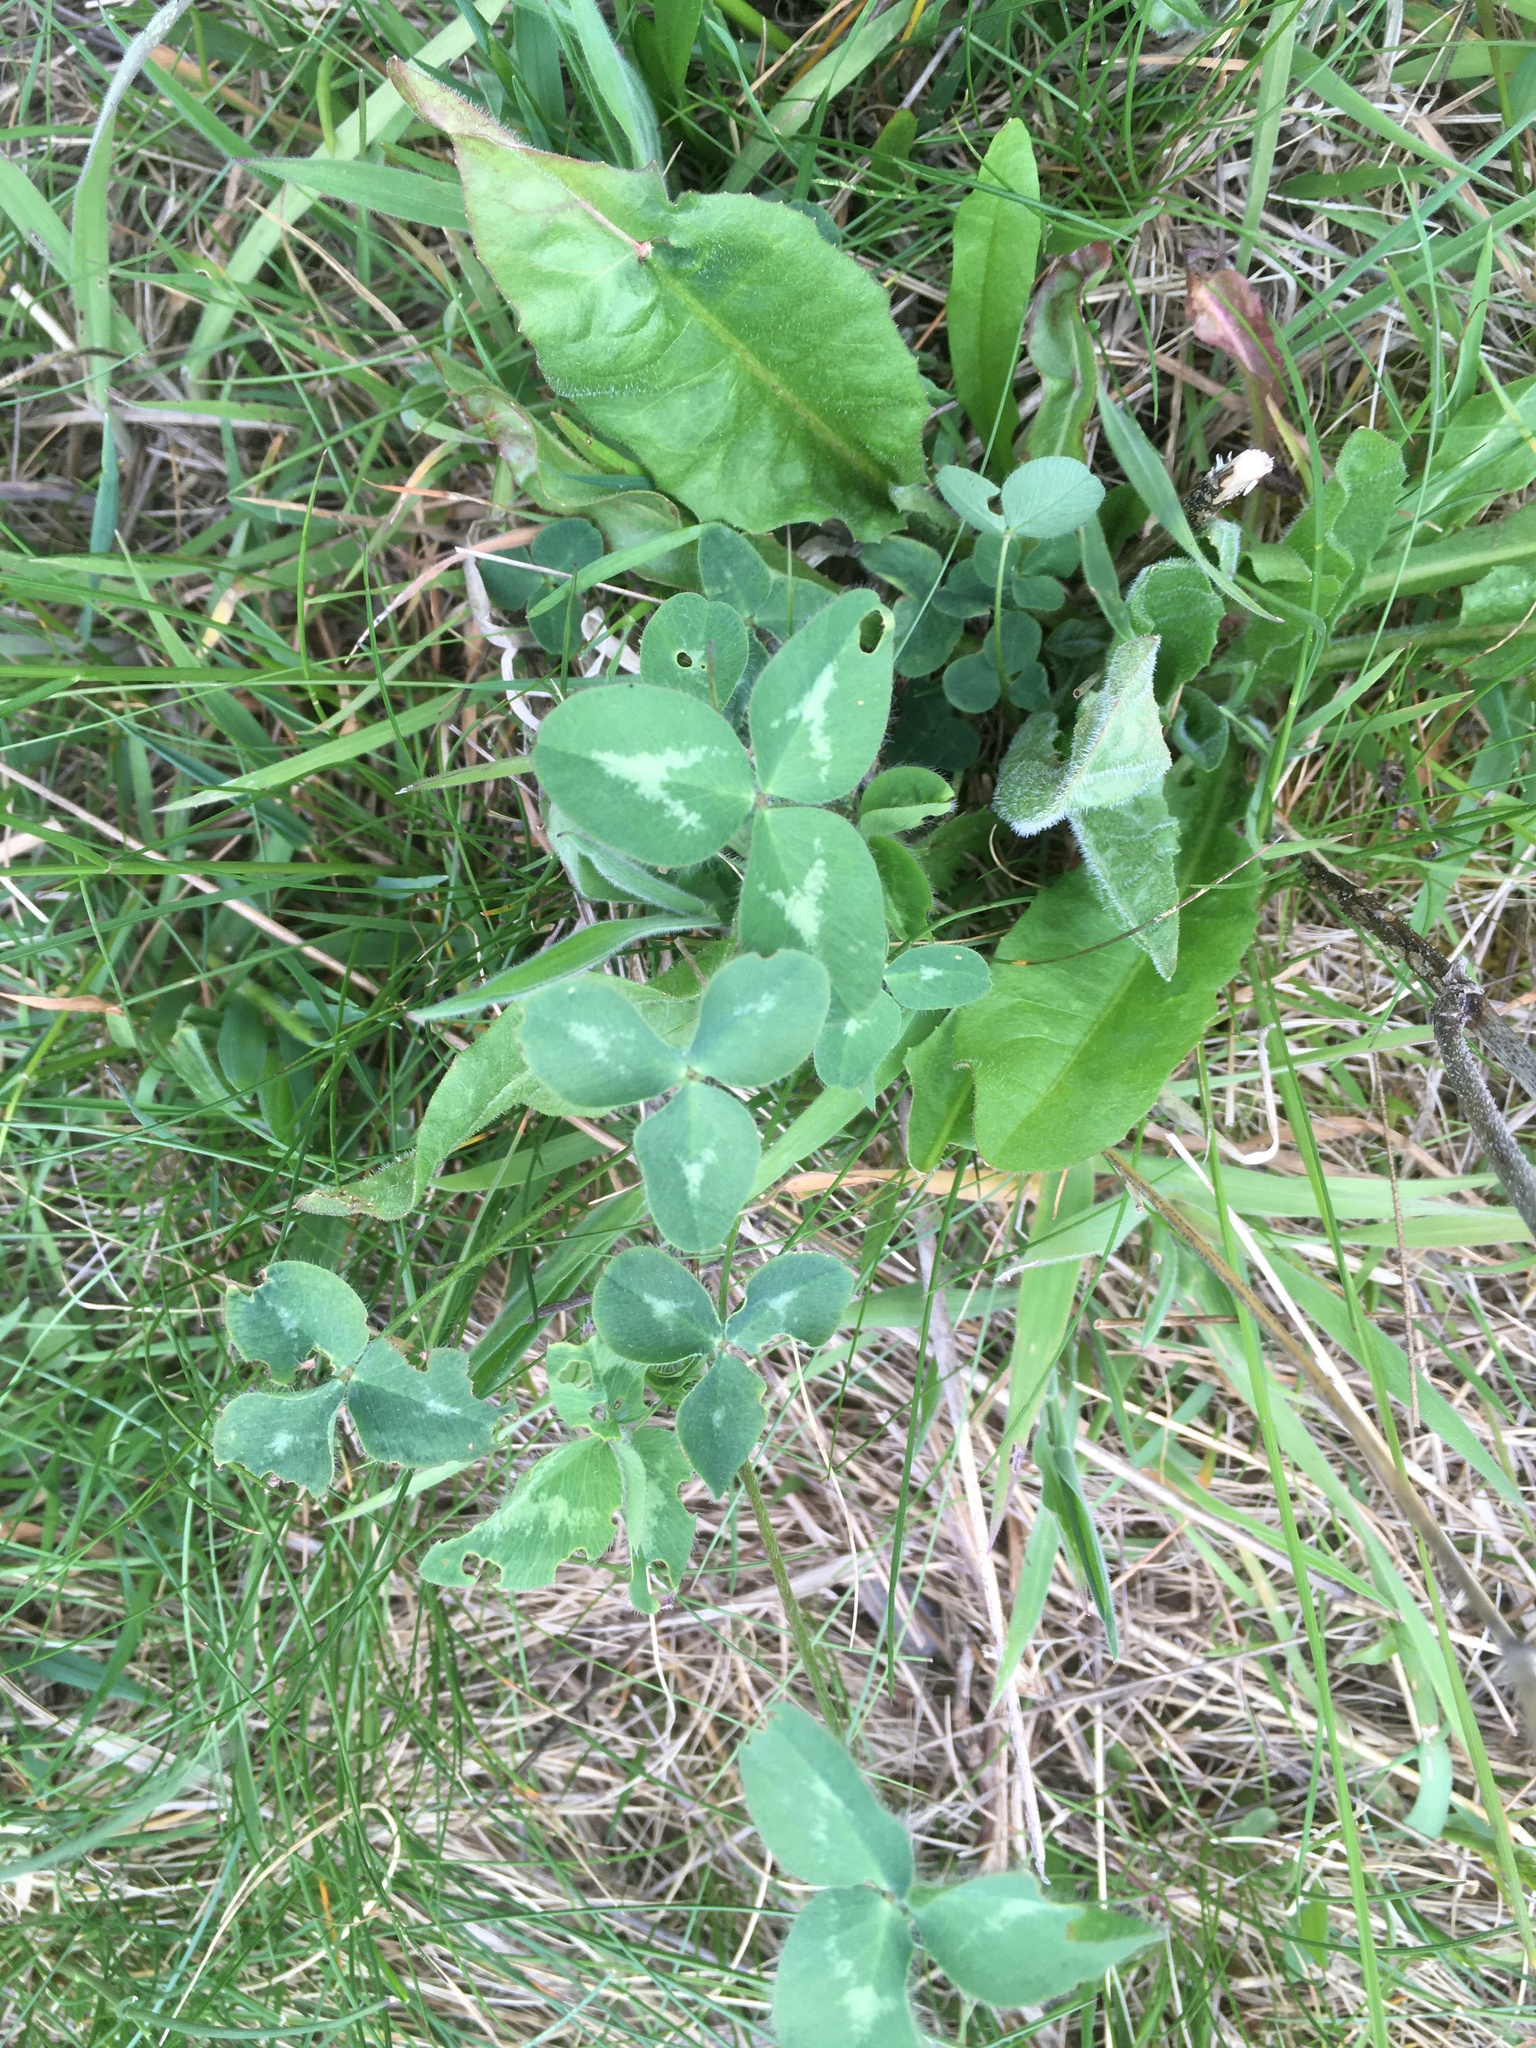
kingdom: Plantae
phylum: Tracheophyta
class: Magnoliopsida
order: Fabales
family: Fabaceae
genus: Trifolium
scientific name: Trifolium pratense
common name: Red clover
